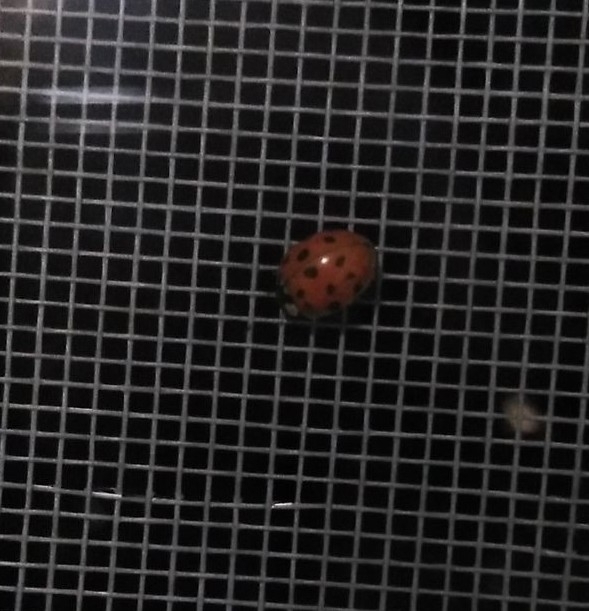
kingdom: Animalia
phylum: Arthropoda
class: Insecta
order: Coleoptera
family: Coccinellidae
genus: Harmonia
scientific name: Harmonia axyridis
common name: Harlequin ladybird
